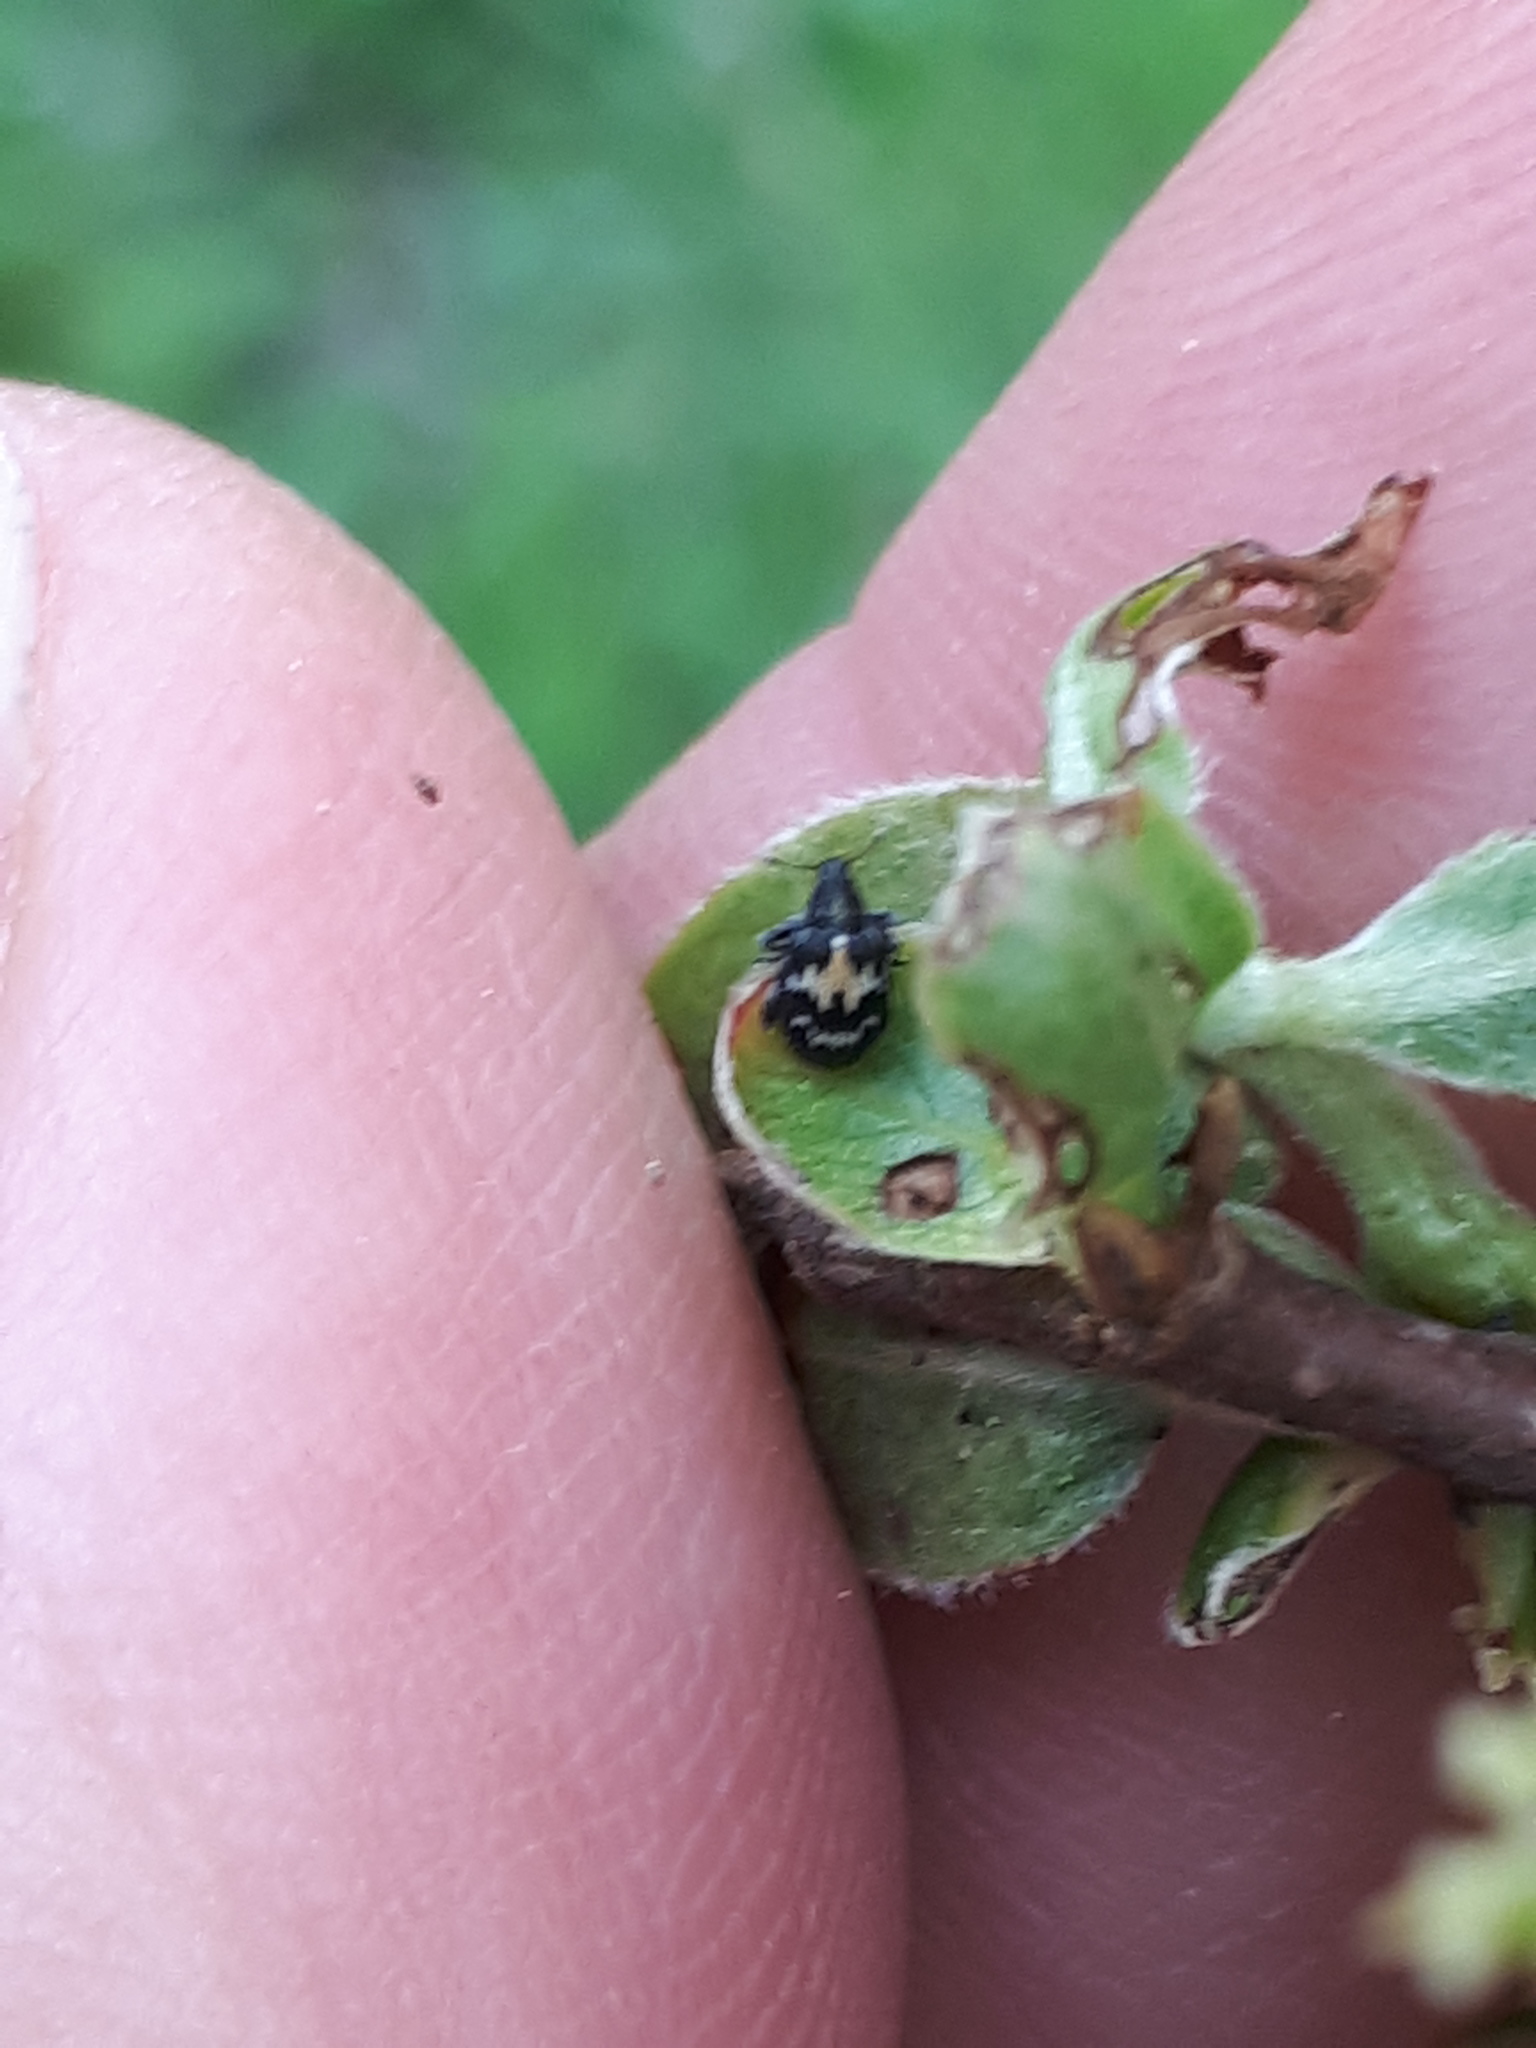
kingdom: Animalia
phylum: Arthropoda
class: Insecta
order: Coleoptera
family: Curculionidae
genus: Tachyerges
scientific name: Tachyerges salicis
